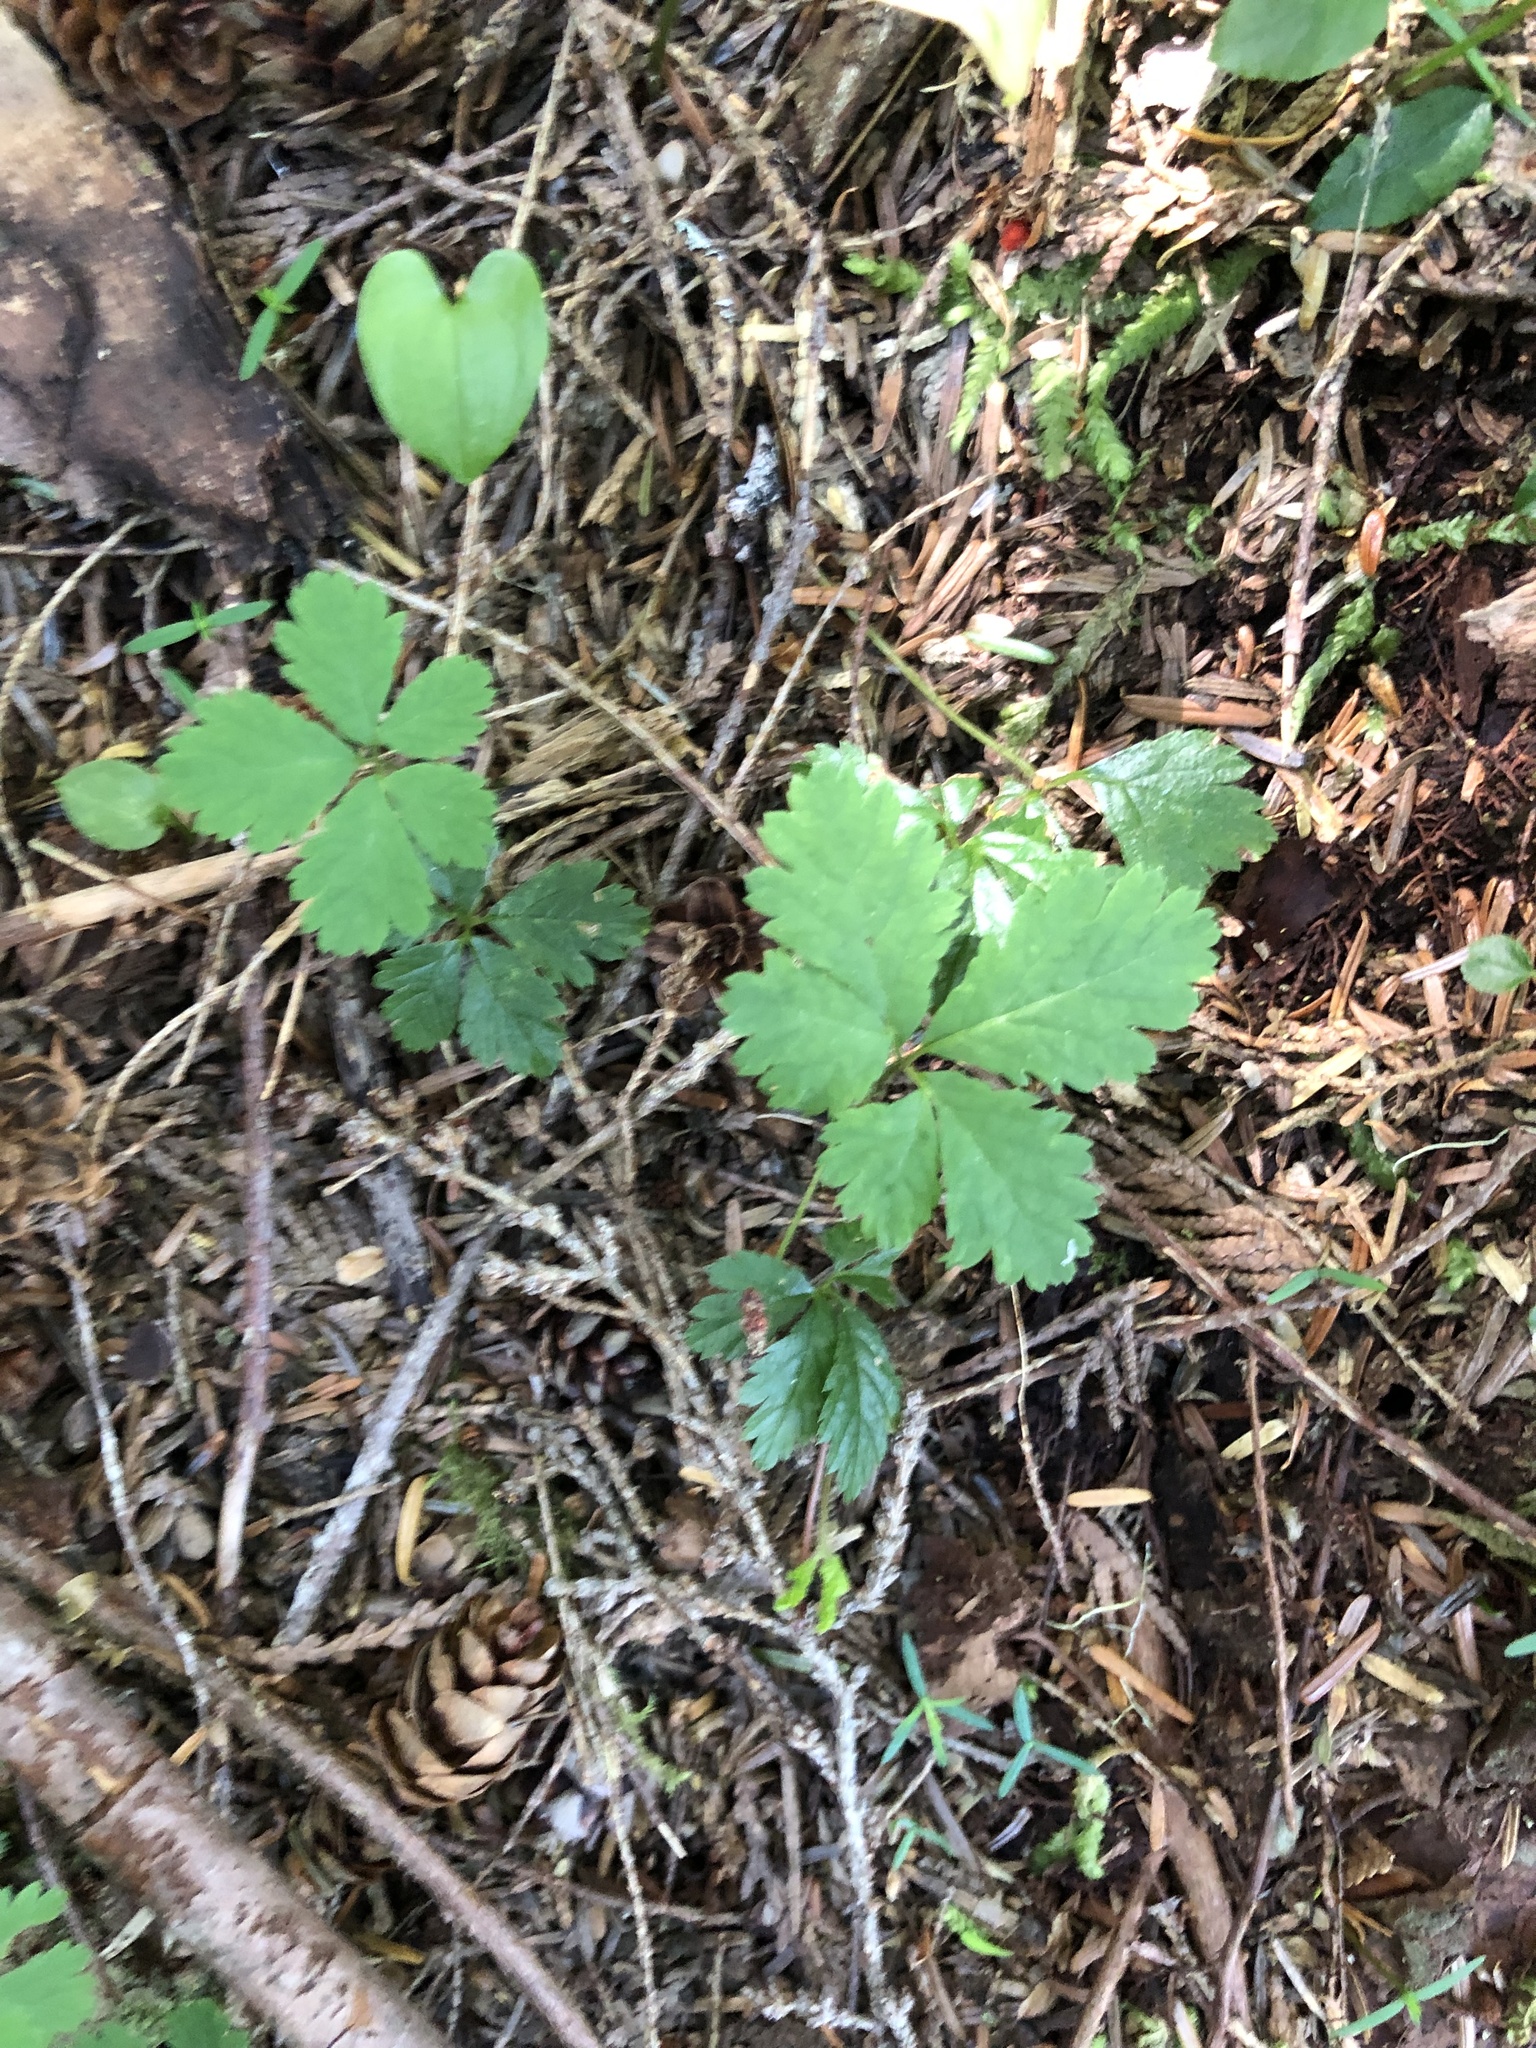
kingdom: Plantae
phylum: Tracheophyta
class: Magnoliopsida
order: Rosales
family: Rosaceae
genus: Rubus
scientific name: Rubus pedatus
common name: Creeping raspberry
